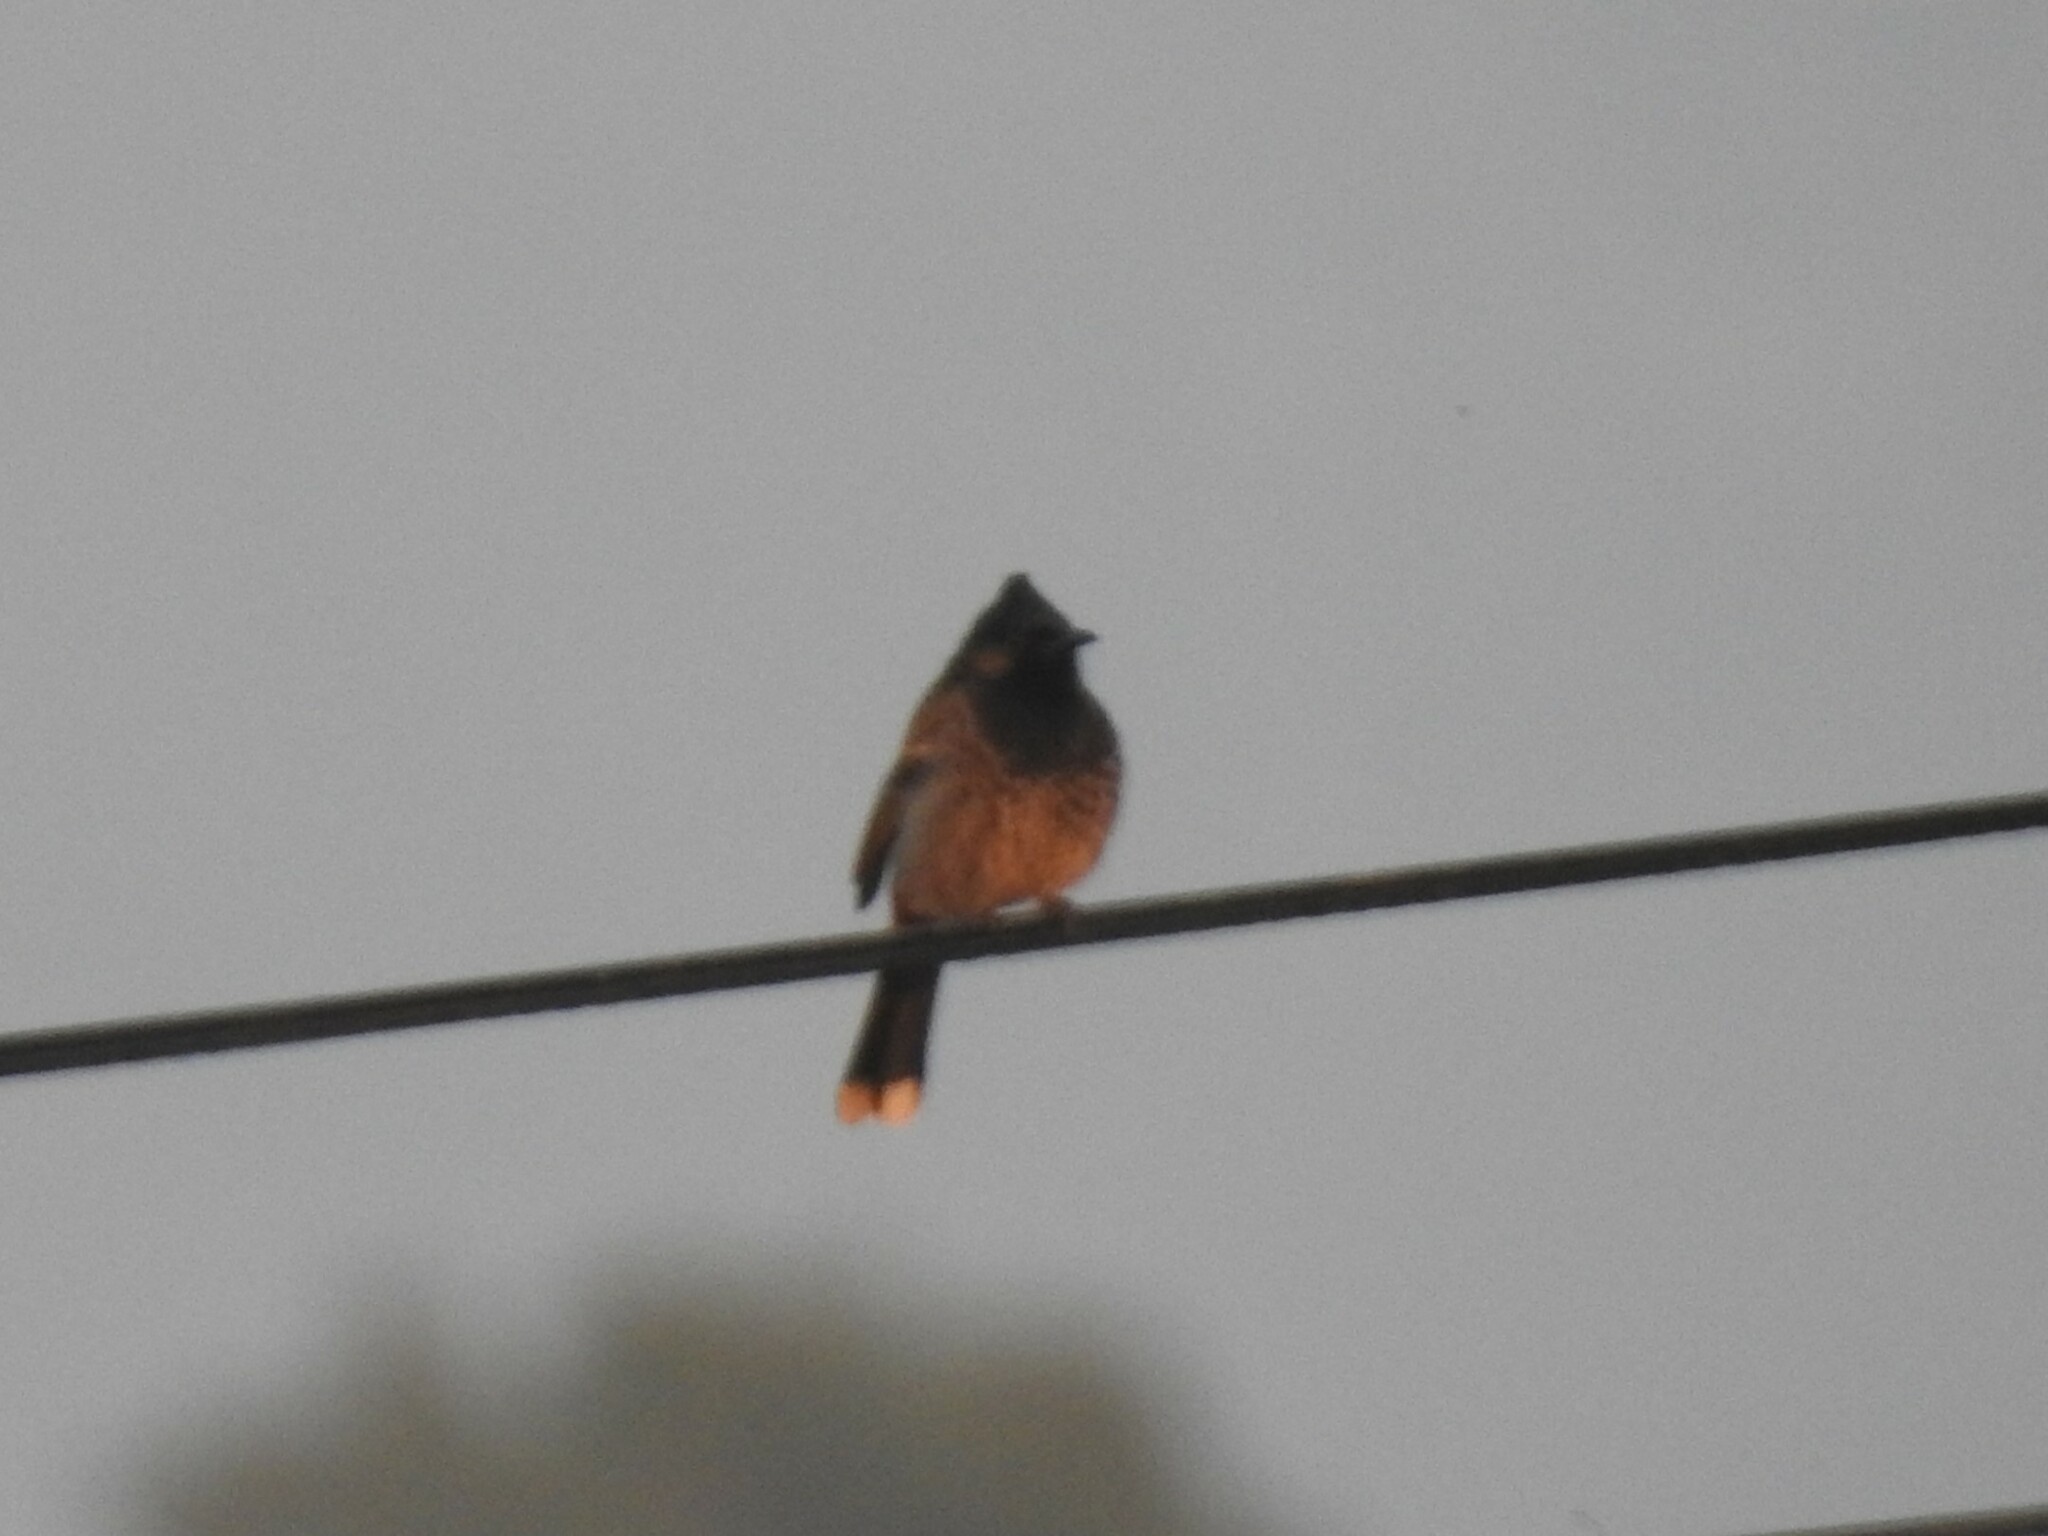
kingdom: Animalia
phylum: Chordata
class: Aves
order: Passeriformes
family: Pycnonotidae
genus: Pycnonotus
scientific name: Pycnonotus cafer
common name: Red-vented bulbul
